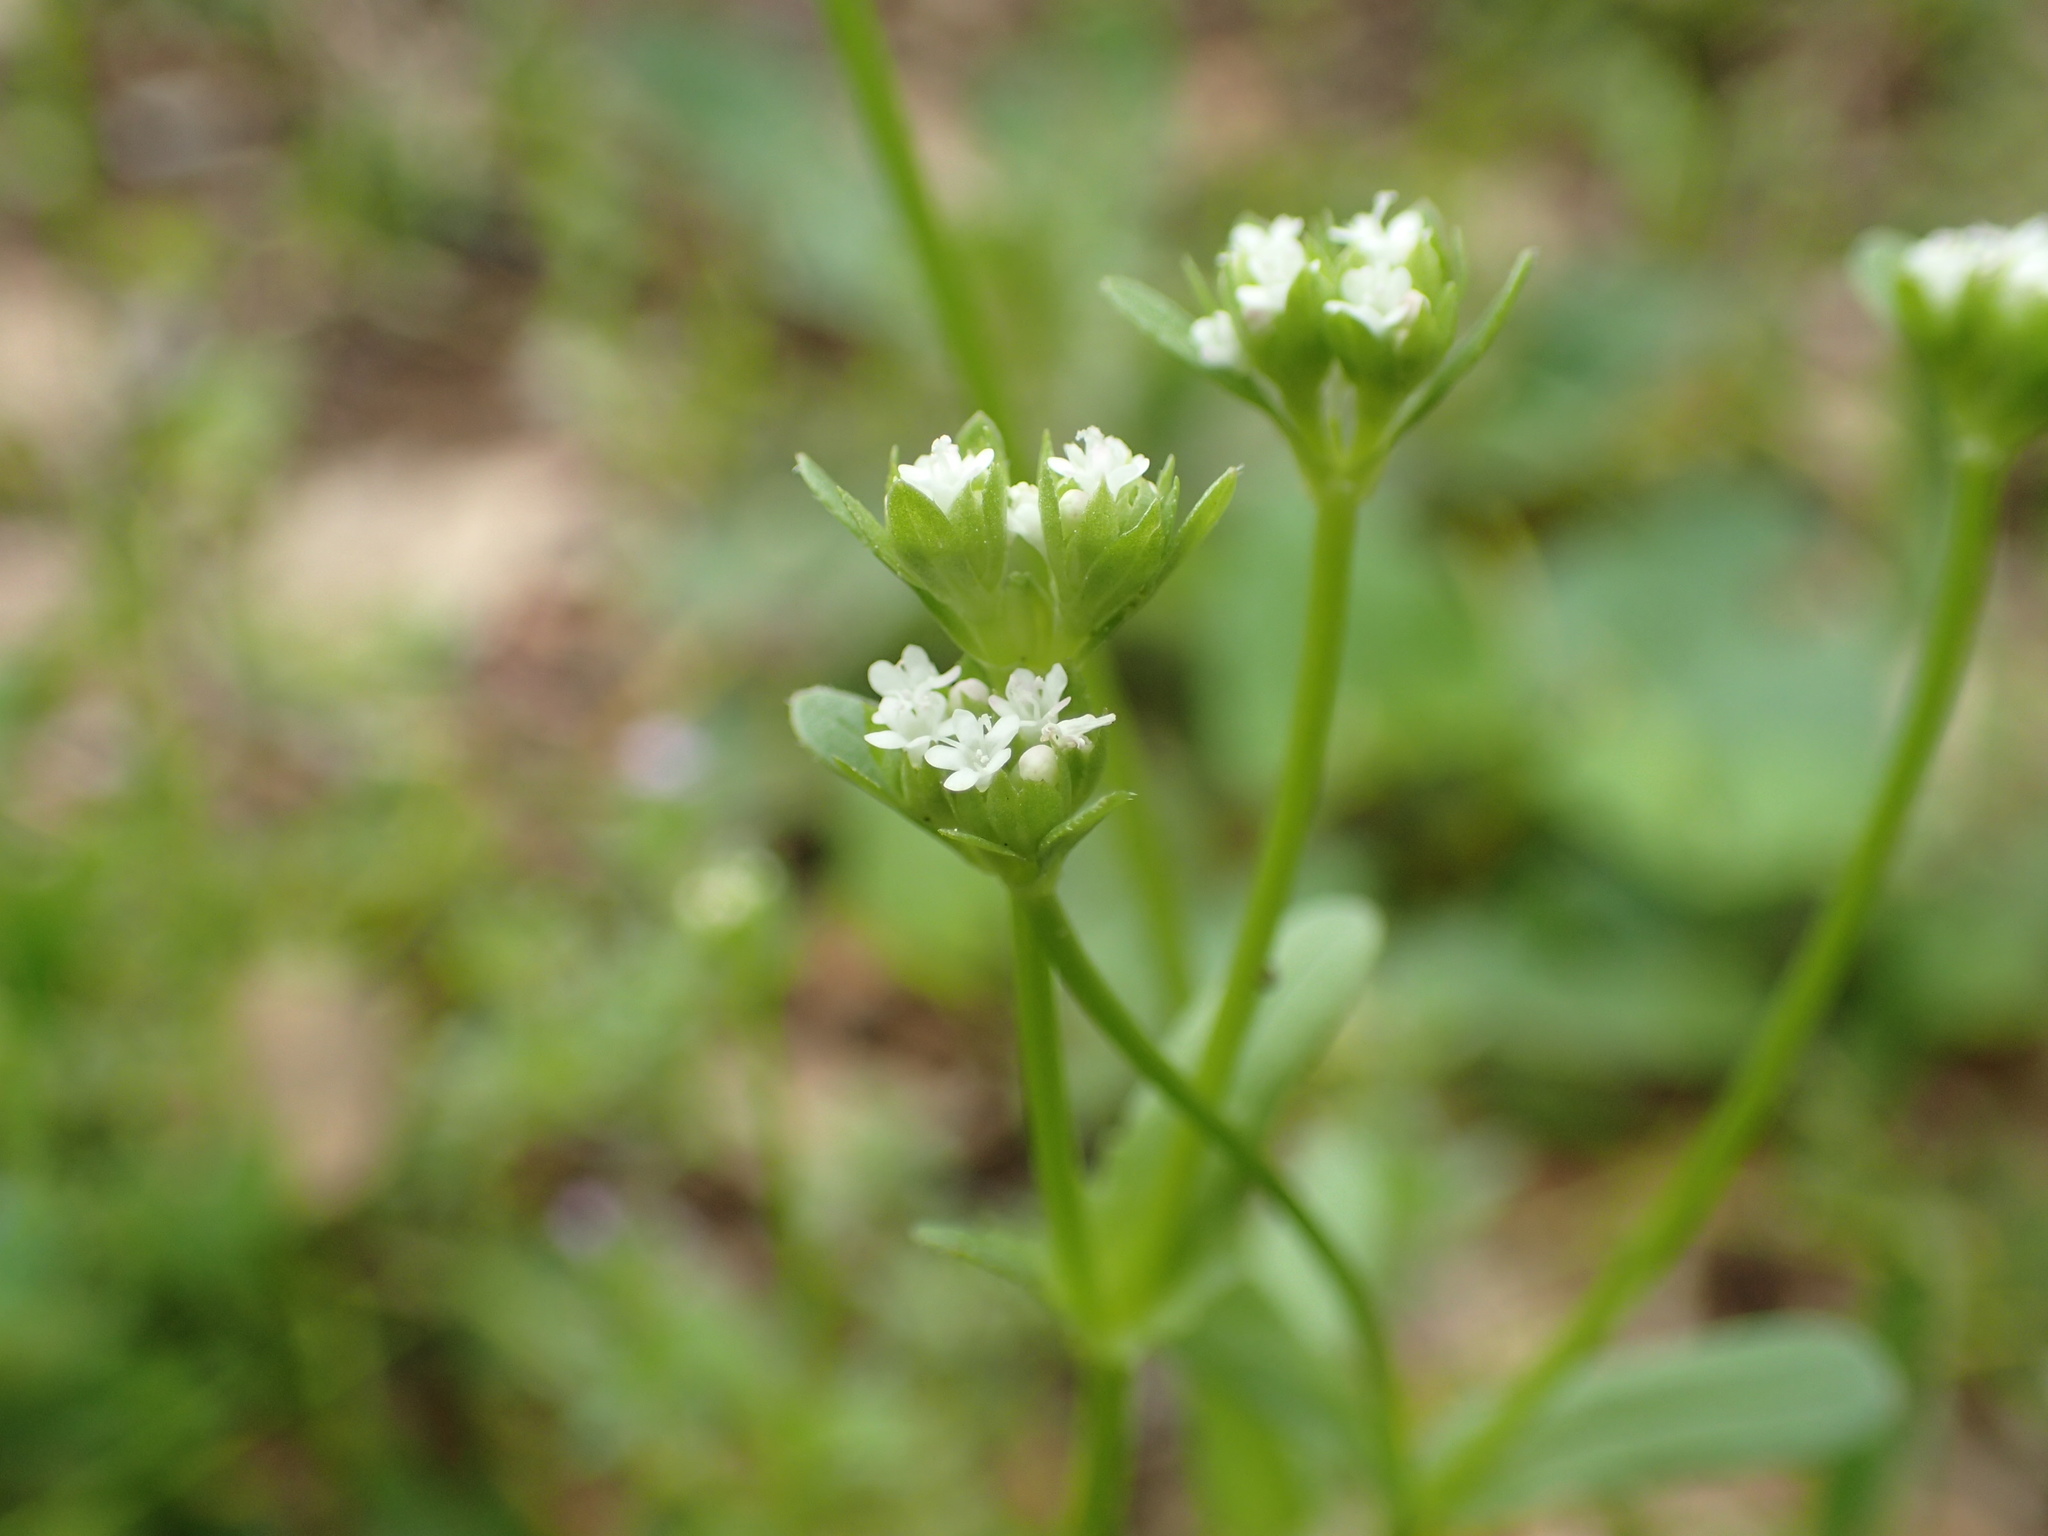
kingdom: Plantae
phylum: Tracheophyta
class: Magnoliopsida
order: Dipsacales
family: Caprifoliaceae
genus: Valerianella
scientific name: Valerianella radiata
